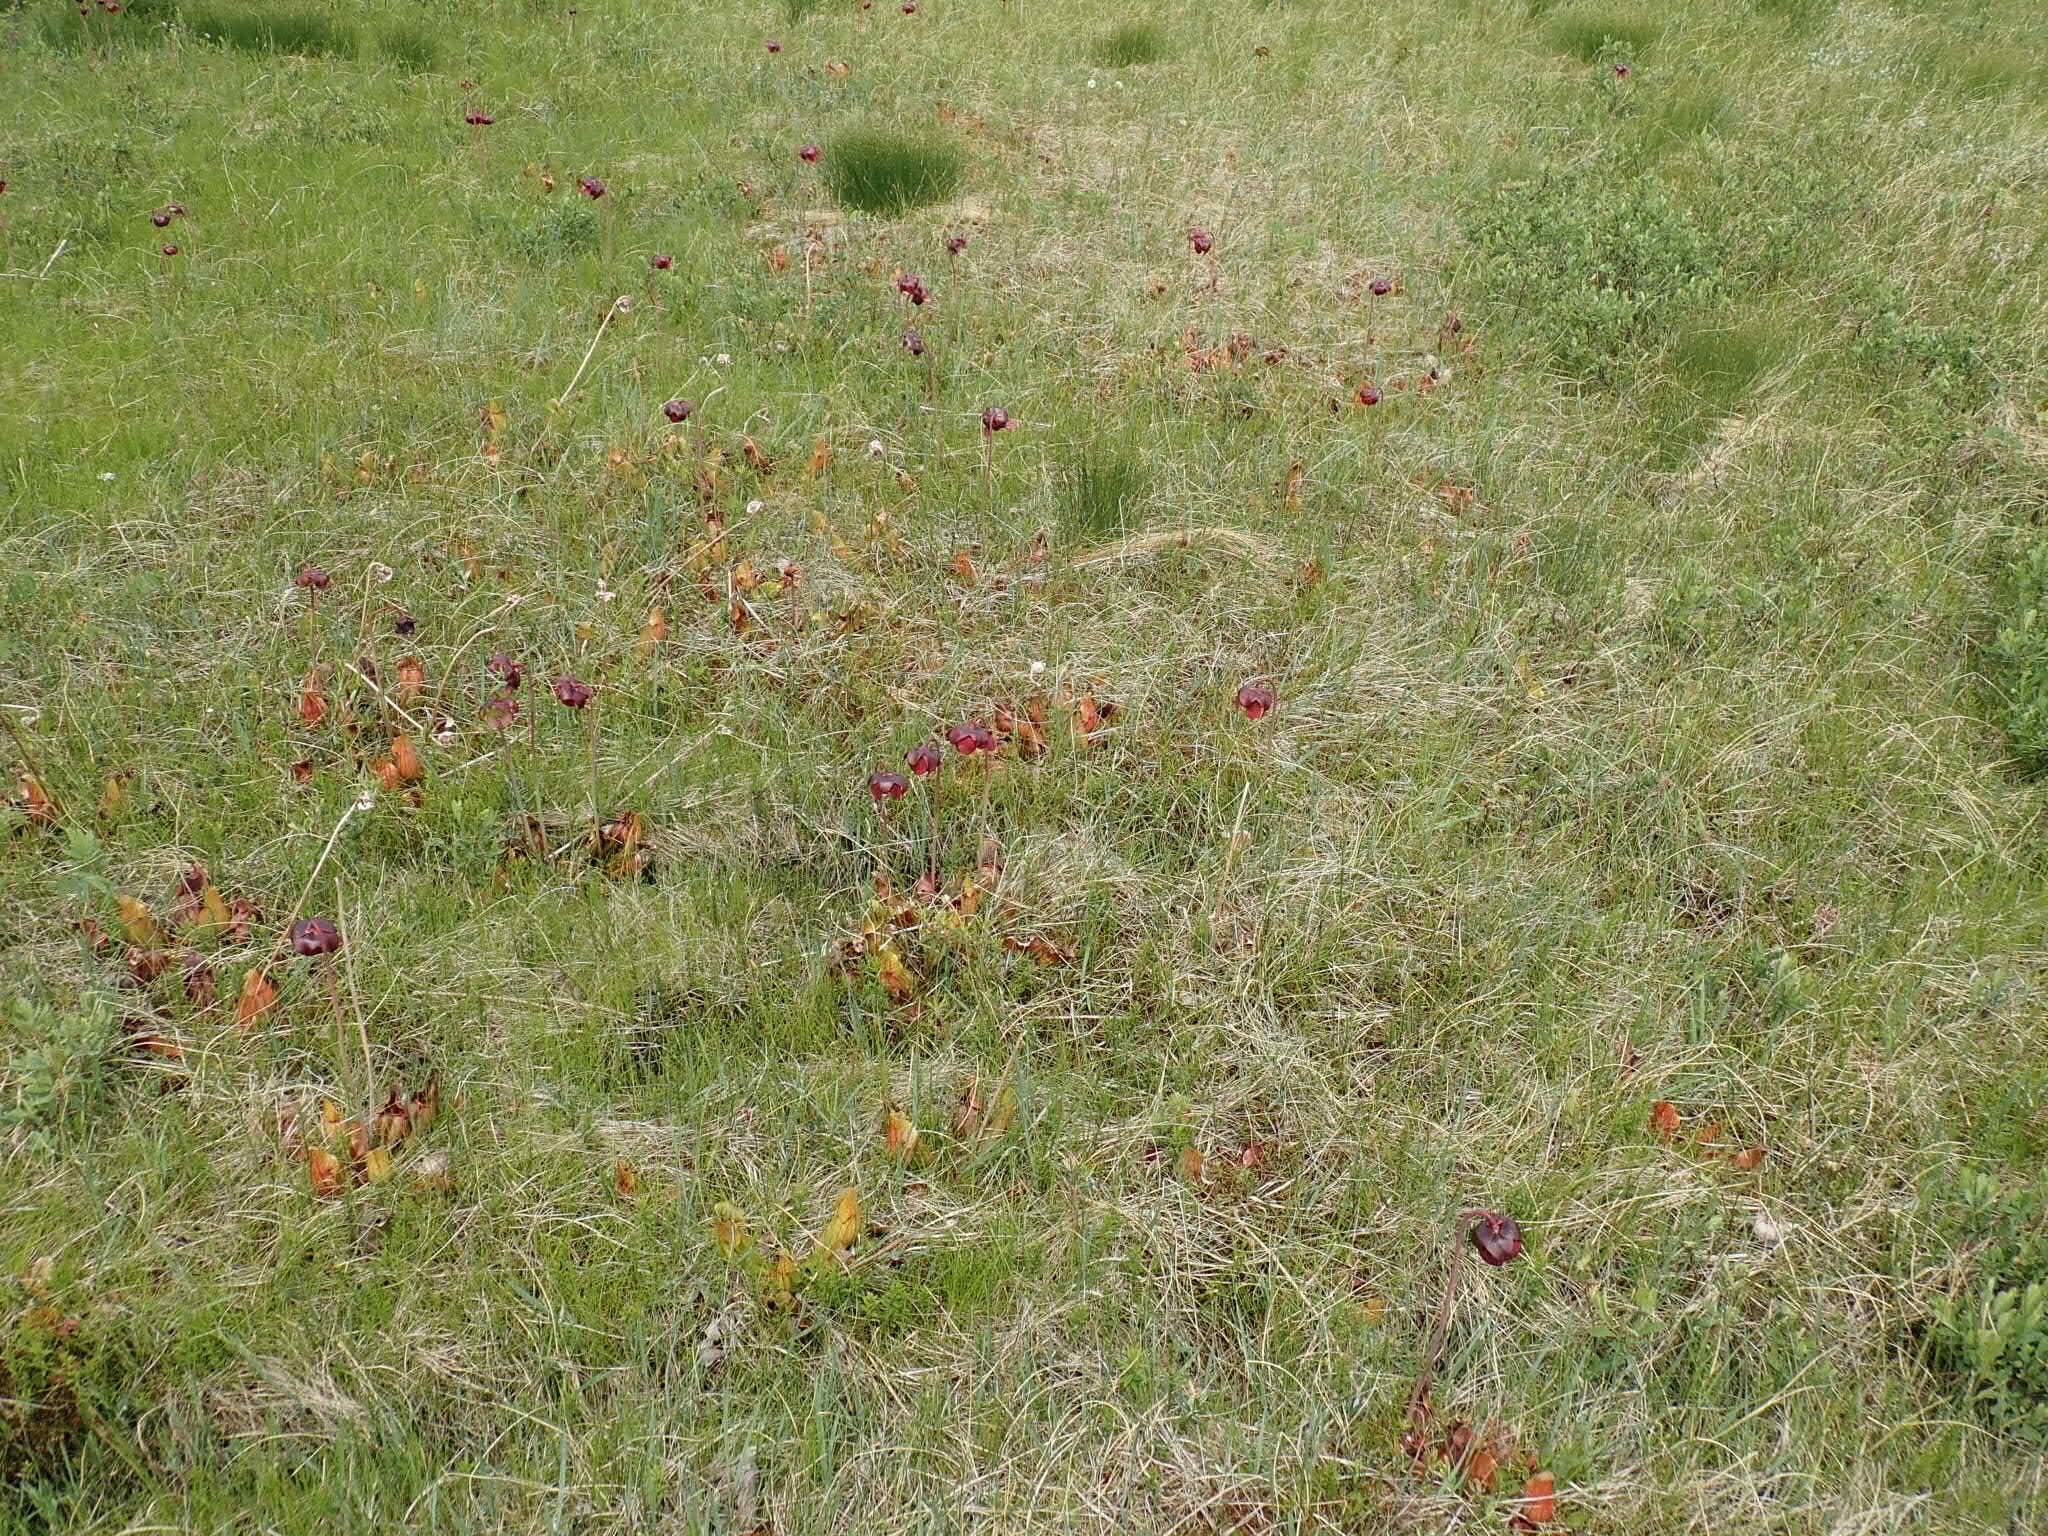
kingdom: Plantae
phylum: Tracheophyta
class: Magnoliopsida
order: Ericales
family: Sarraceniaceae
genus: Sarracenia
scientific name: Sarracenia purpurea
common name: Pitcherplant
